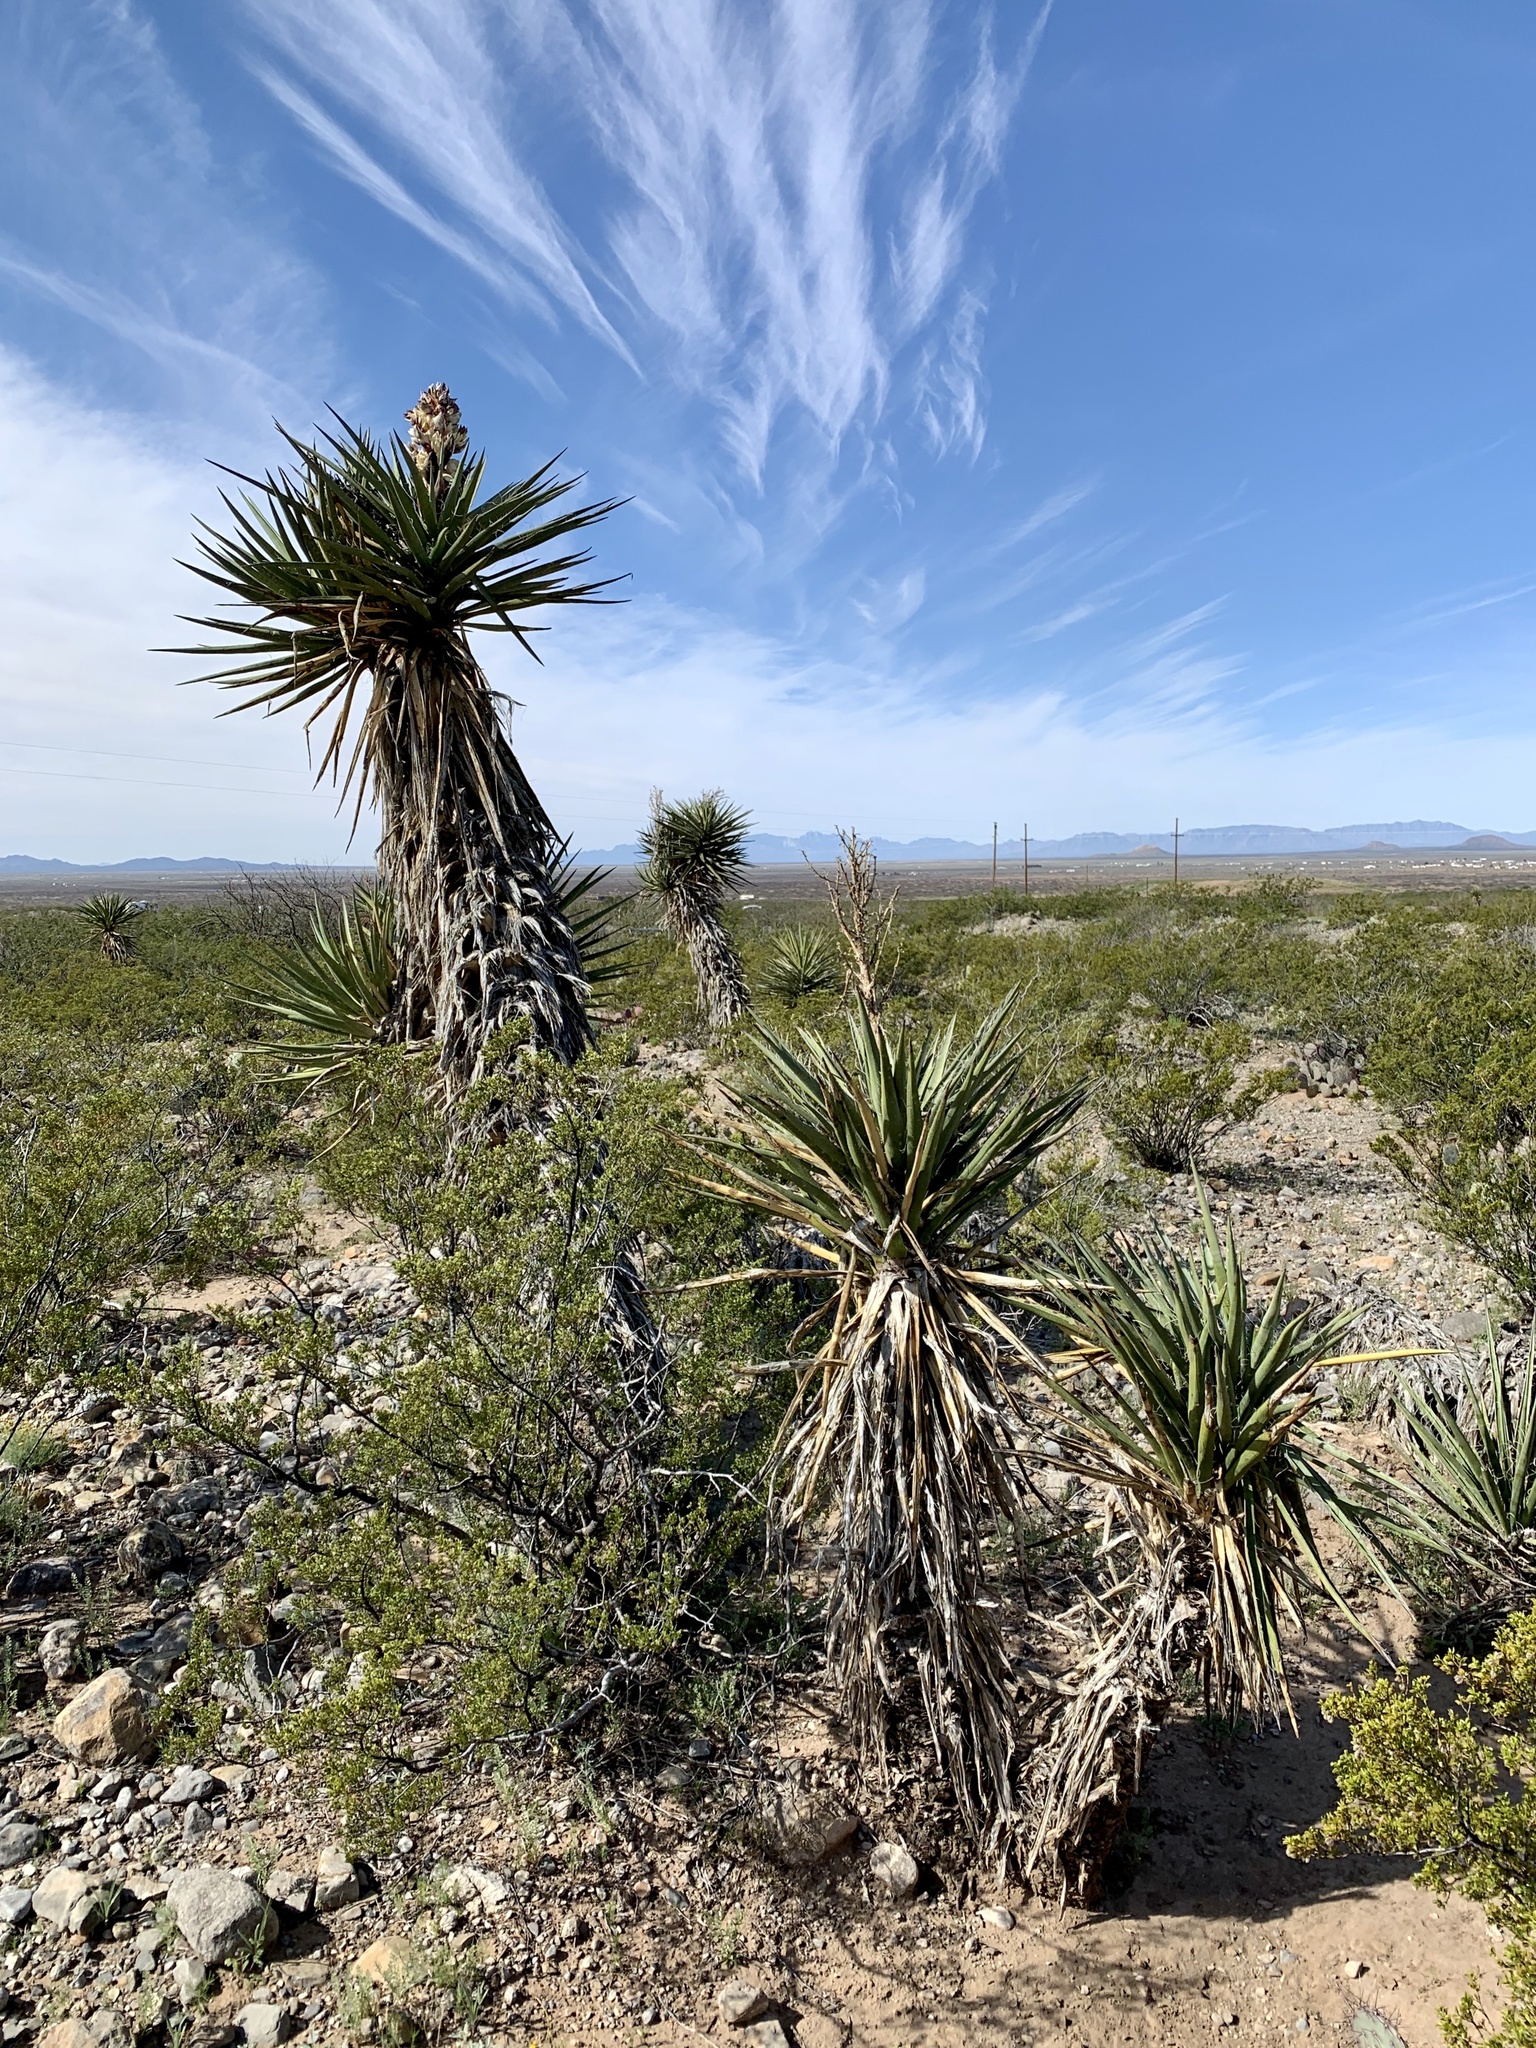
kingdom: Plantae
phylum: Tracheophyta
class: Liliopsida
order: Asparagales
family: Asparagaceae
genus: Yucca
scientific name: Yucca treculiana
